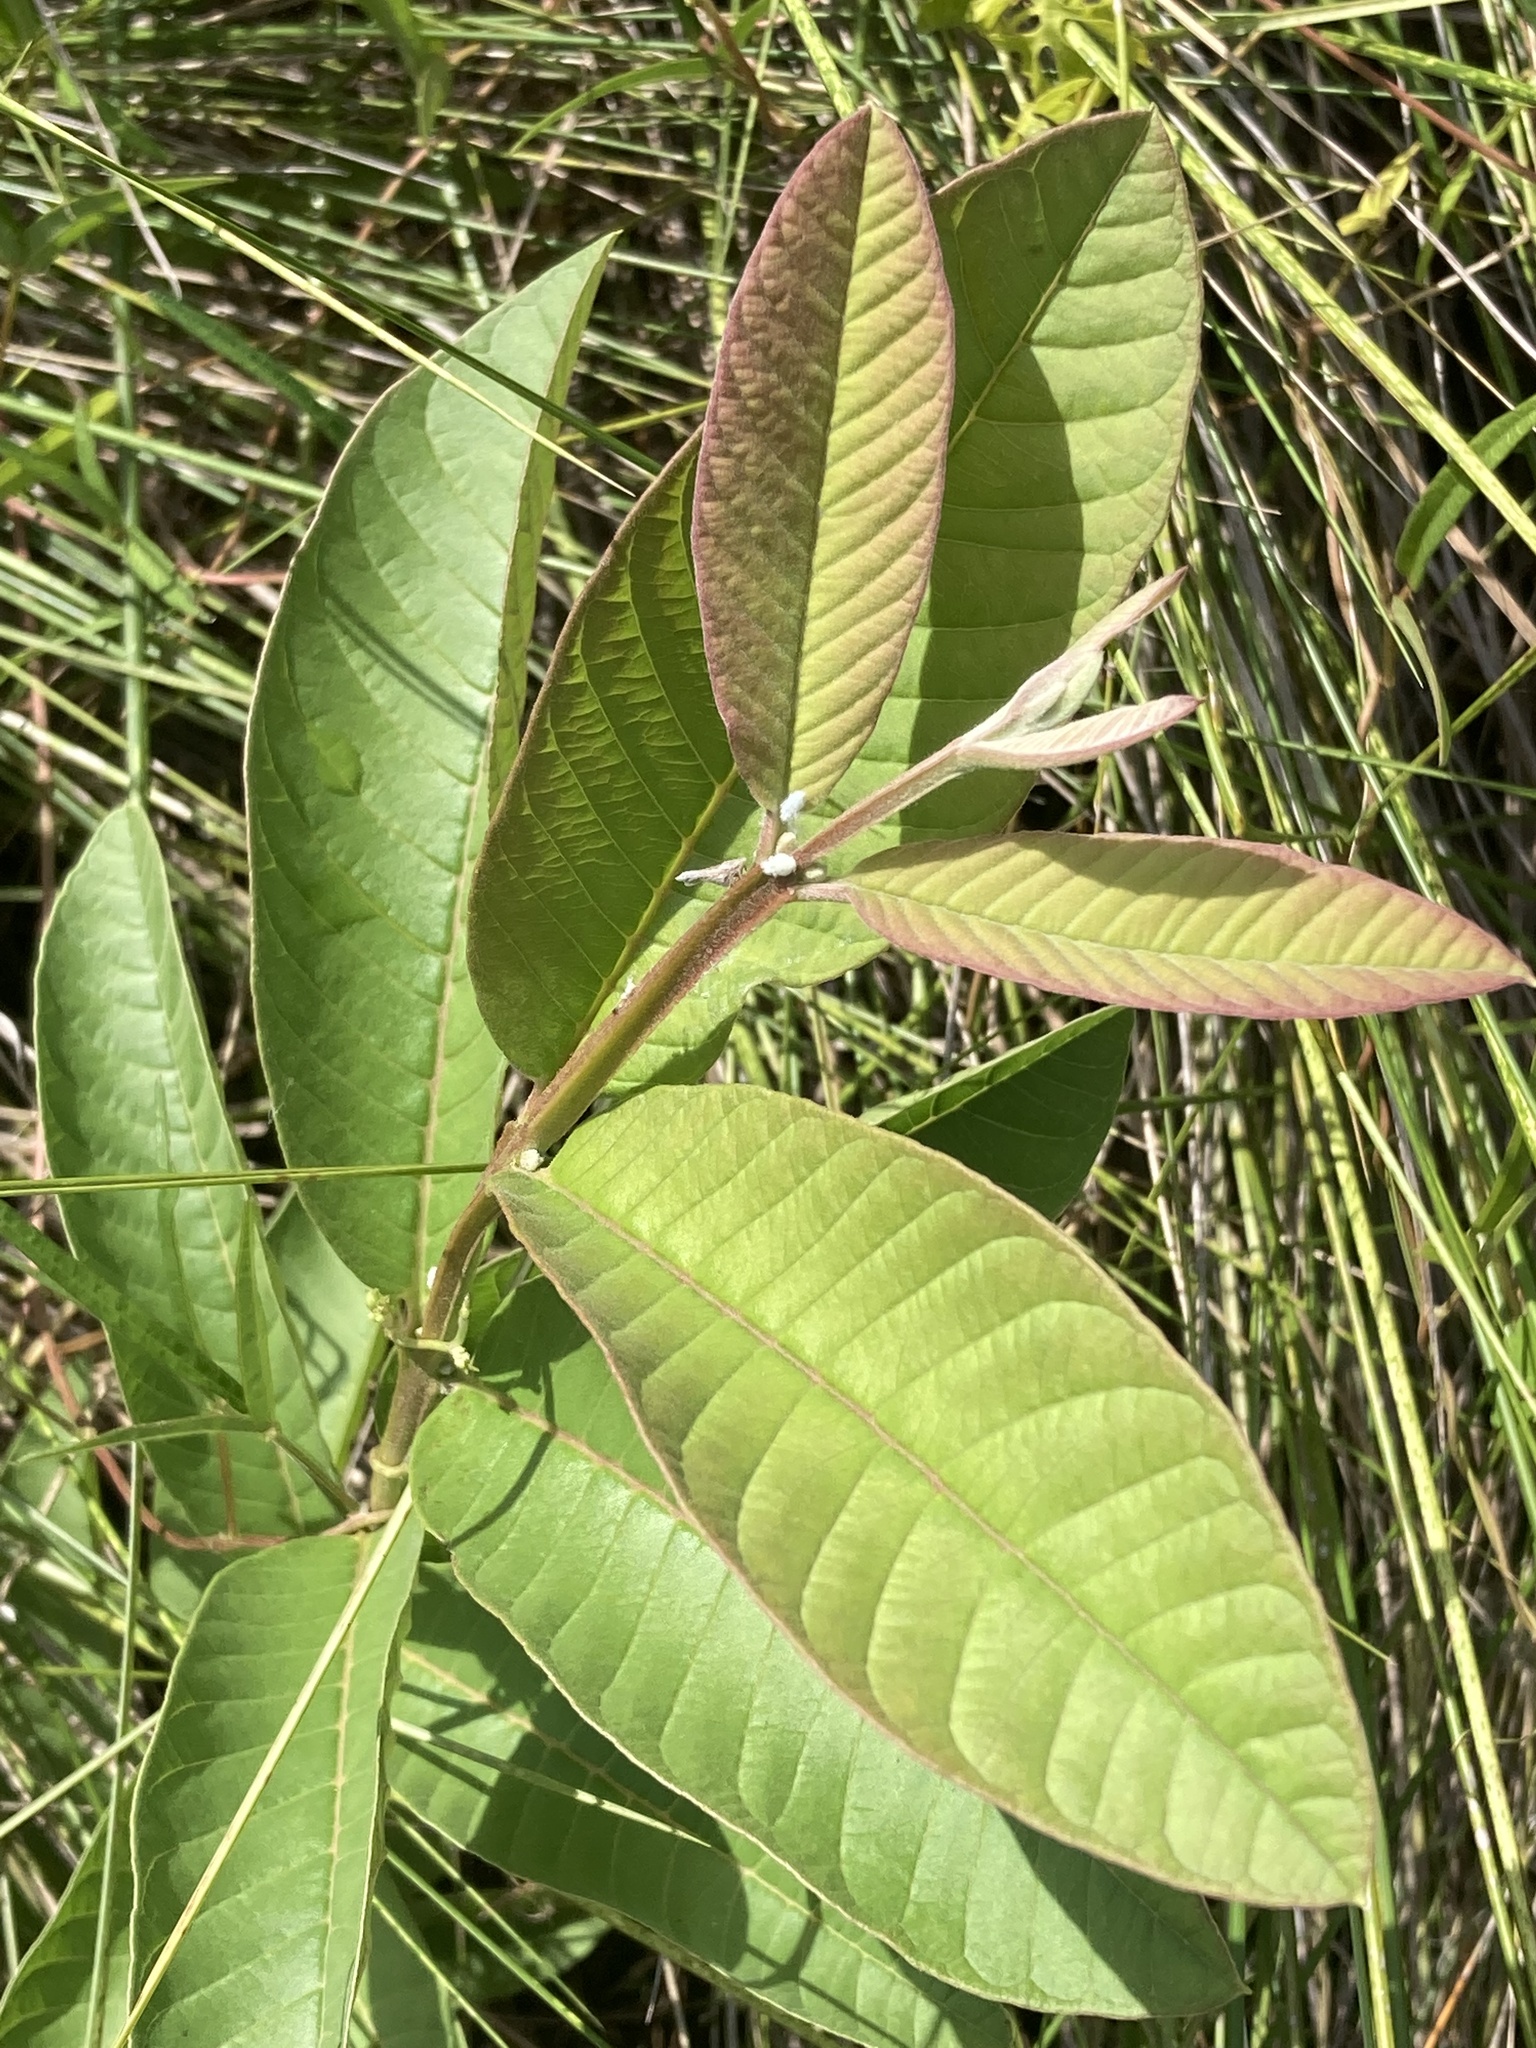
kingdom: Plantae
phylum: Tracheophyta
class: Magnoliopsida
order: Myrtales
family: Myrtaceae
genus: Psidium
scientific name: Psidium guajava
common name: Guava
